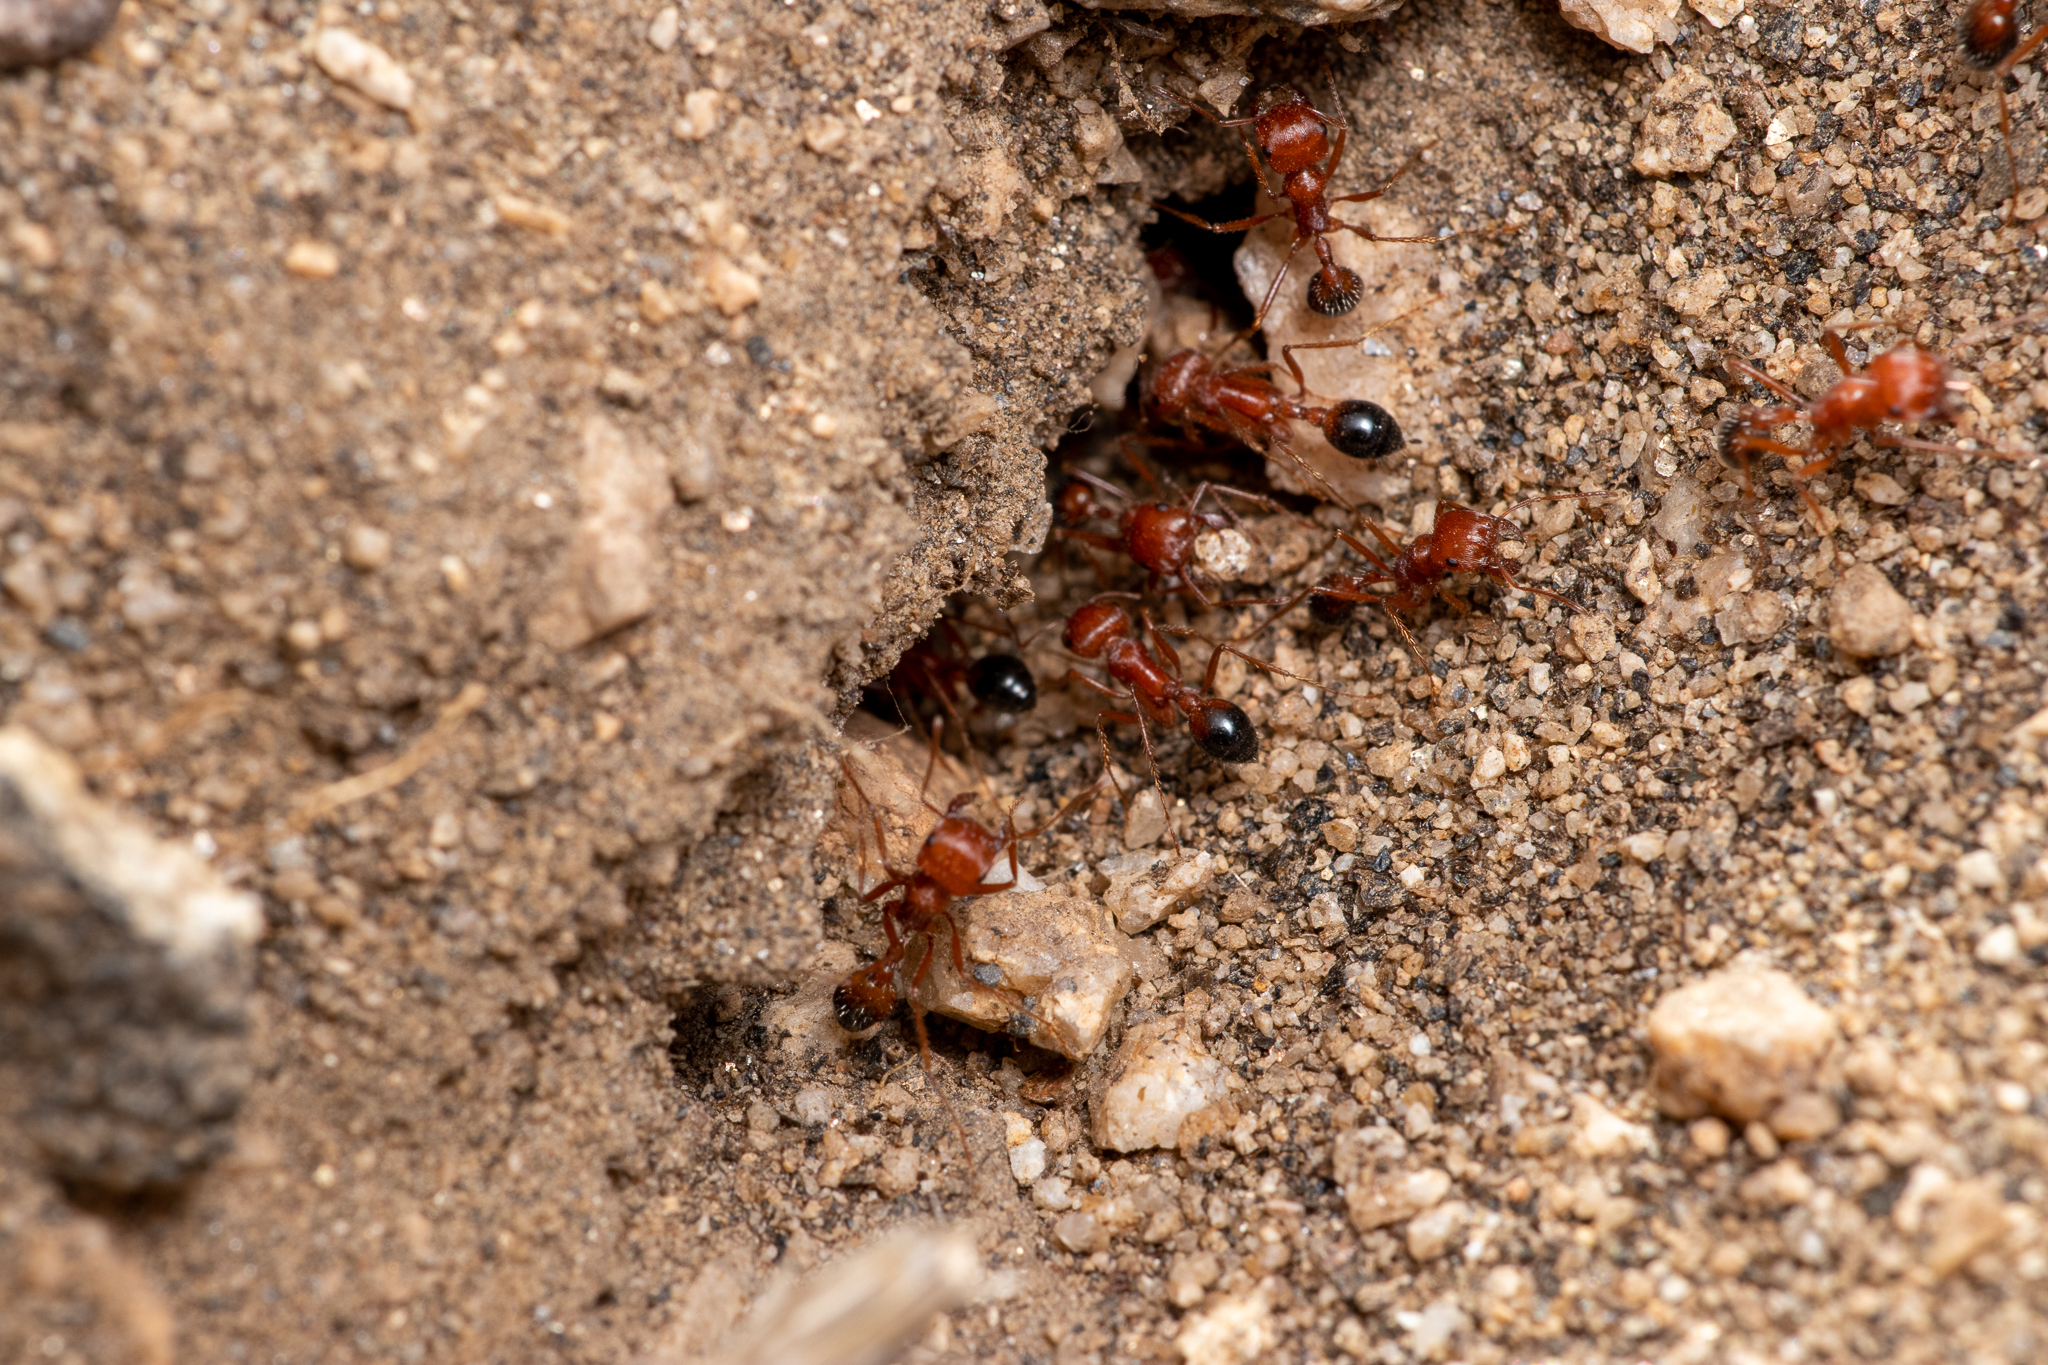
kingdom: Animalia
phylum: Arthropoda
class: Insecta
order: Hymenoptera
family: Formicidae
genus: Pogonomyrmex
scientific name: Pogonomyrmex californicus
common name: California harvester ant
